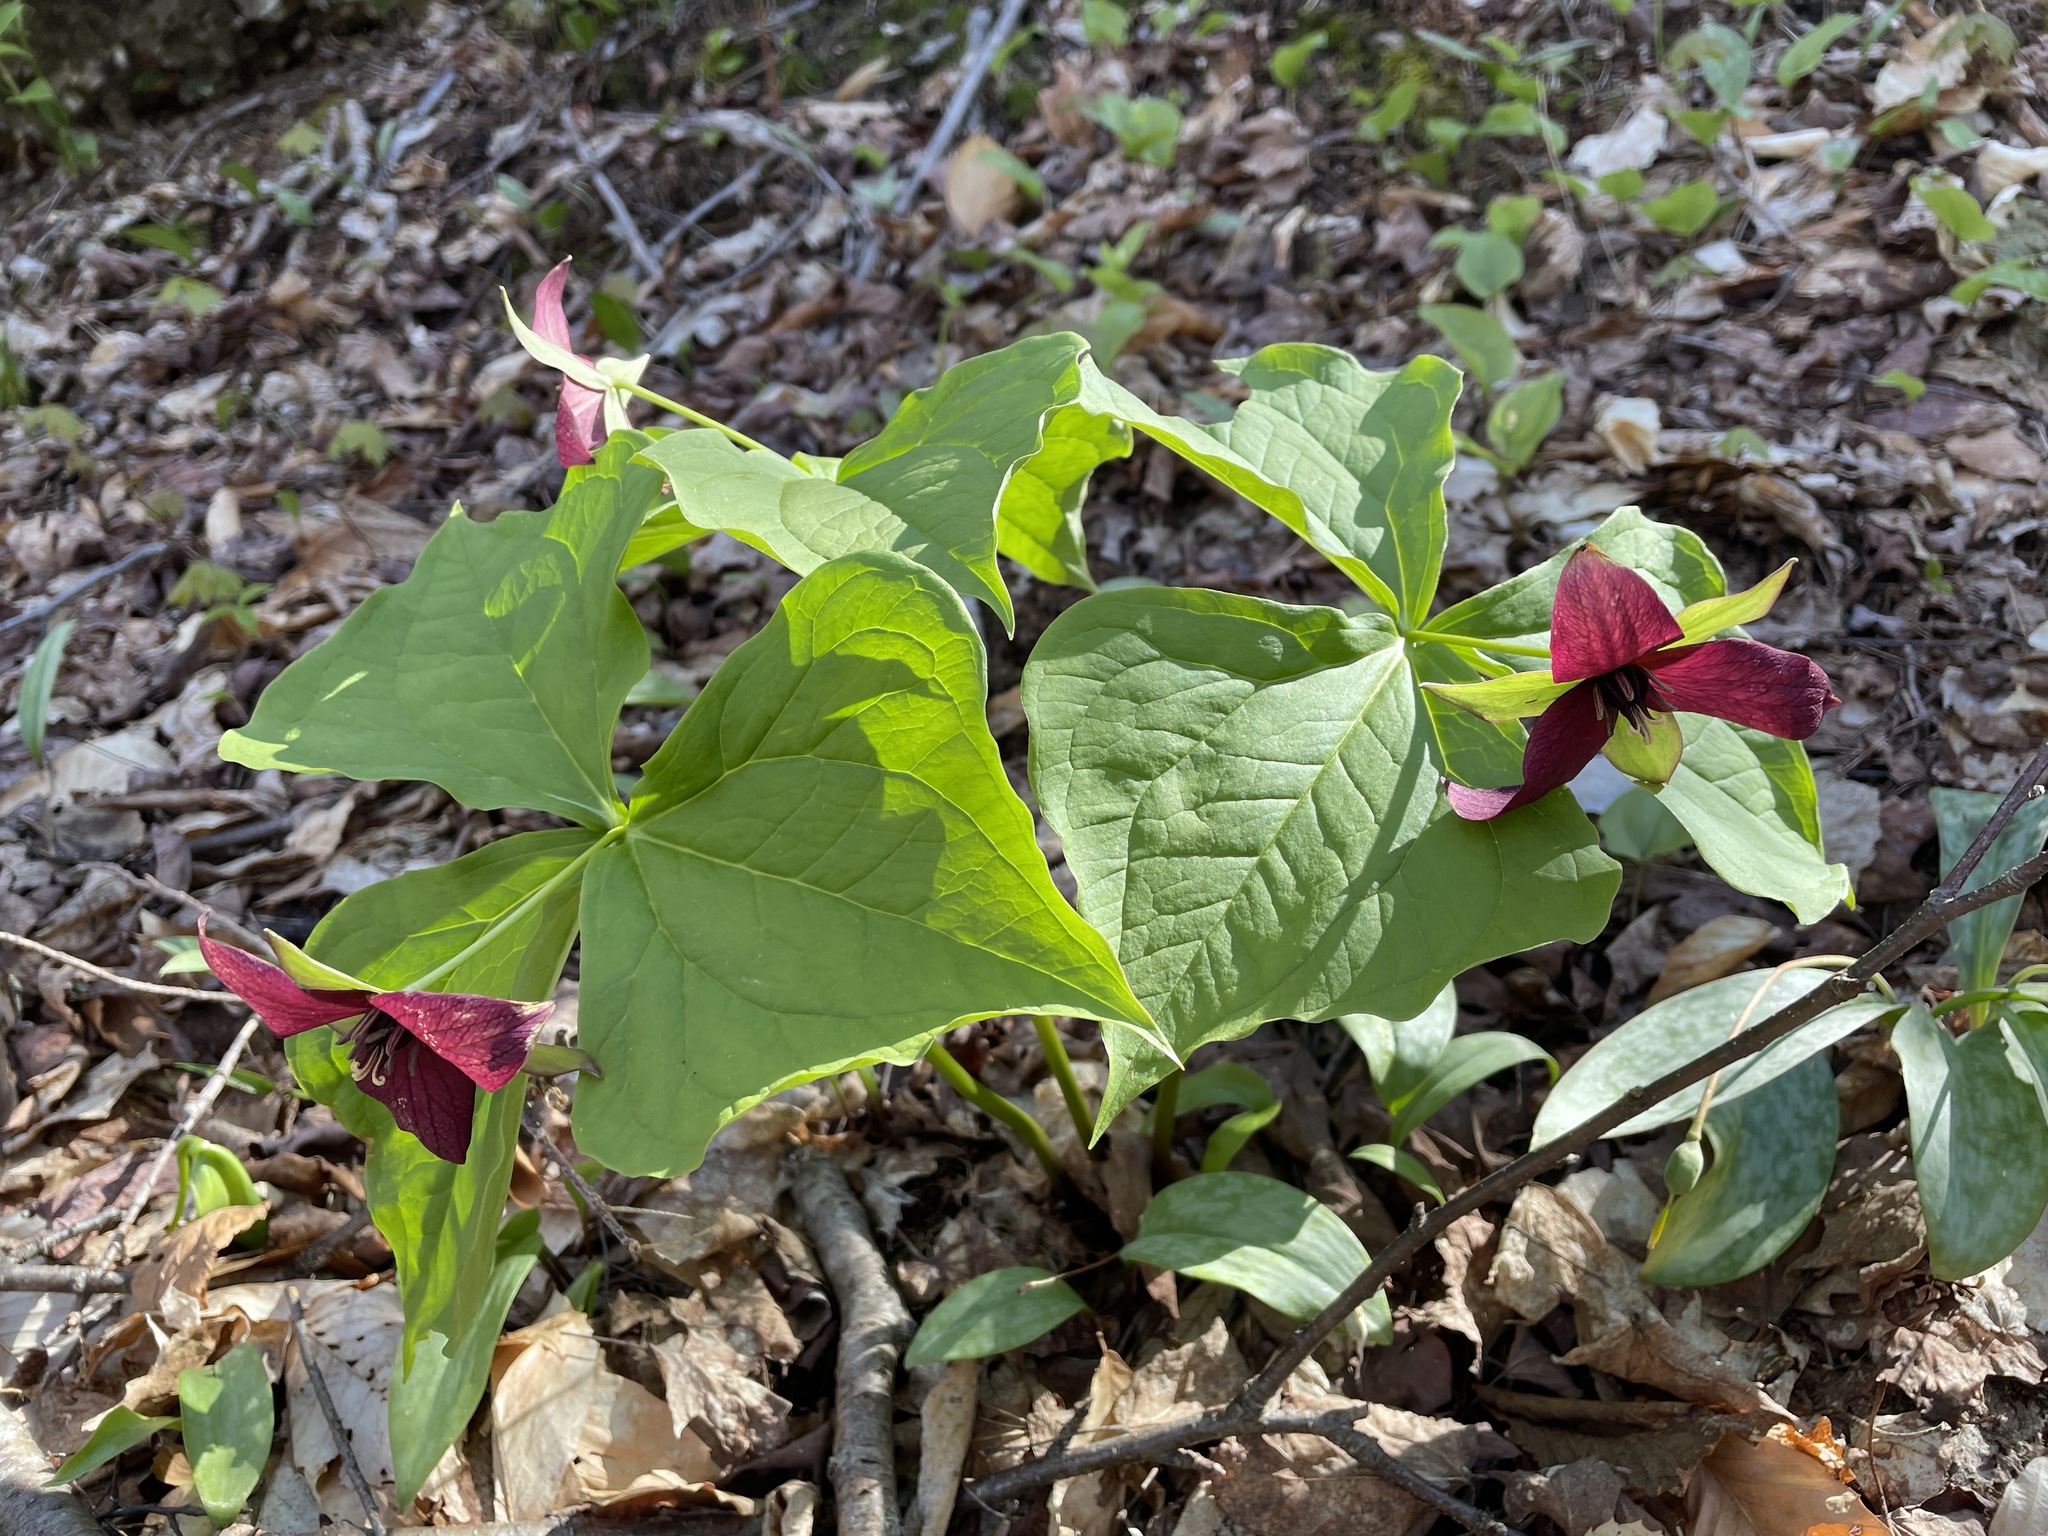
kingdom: Plantae
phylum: Tracheophyta
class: Liliopsida
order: Liliales
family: Melanthiaceae
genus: Trillium
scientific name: Trillium erectum
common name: Purple trillium
